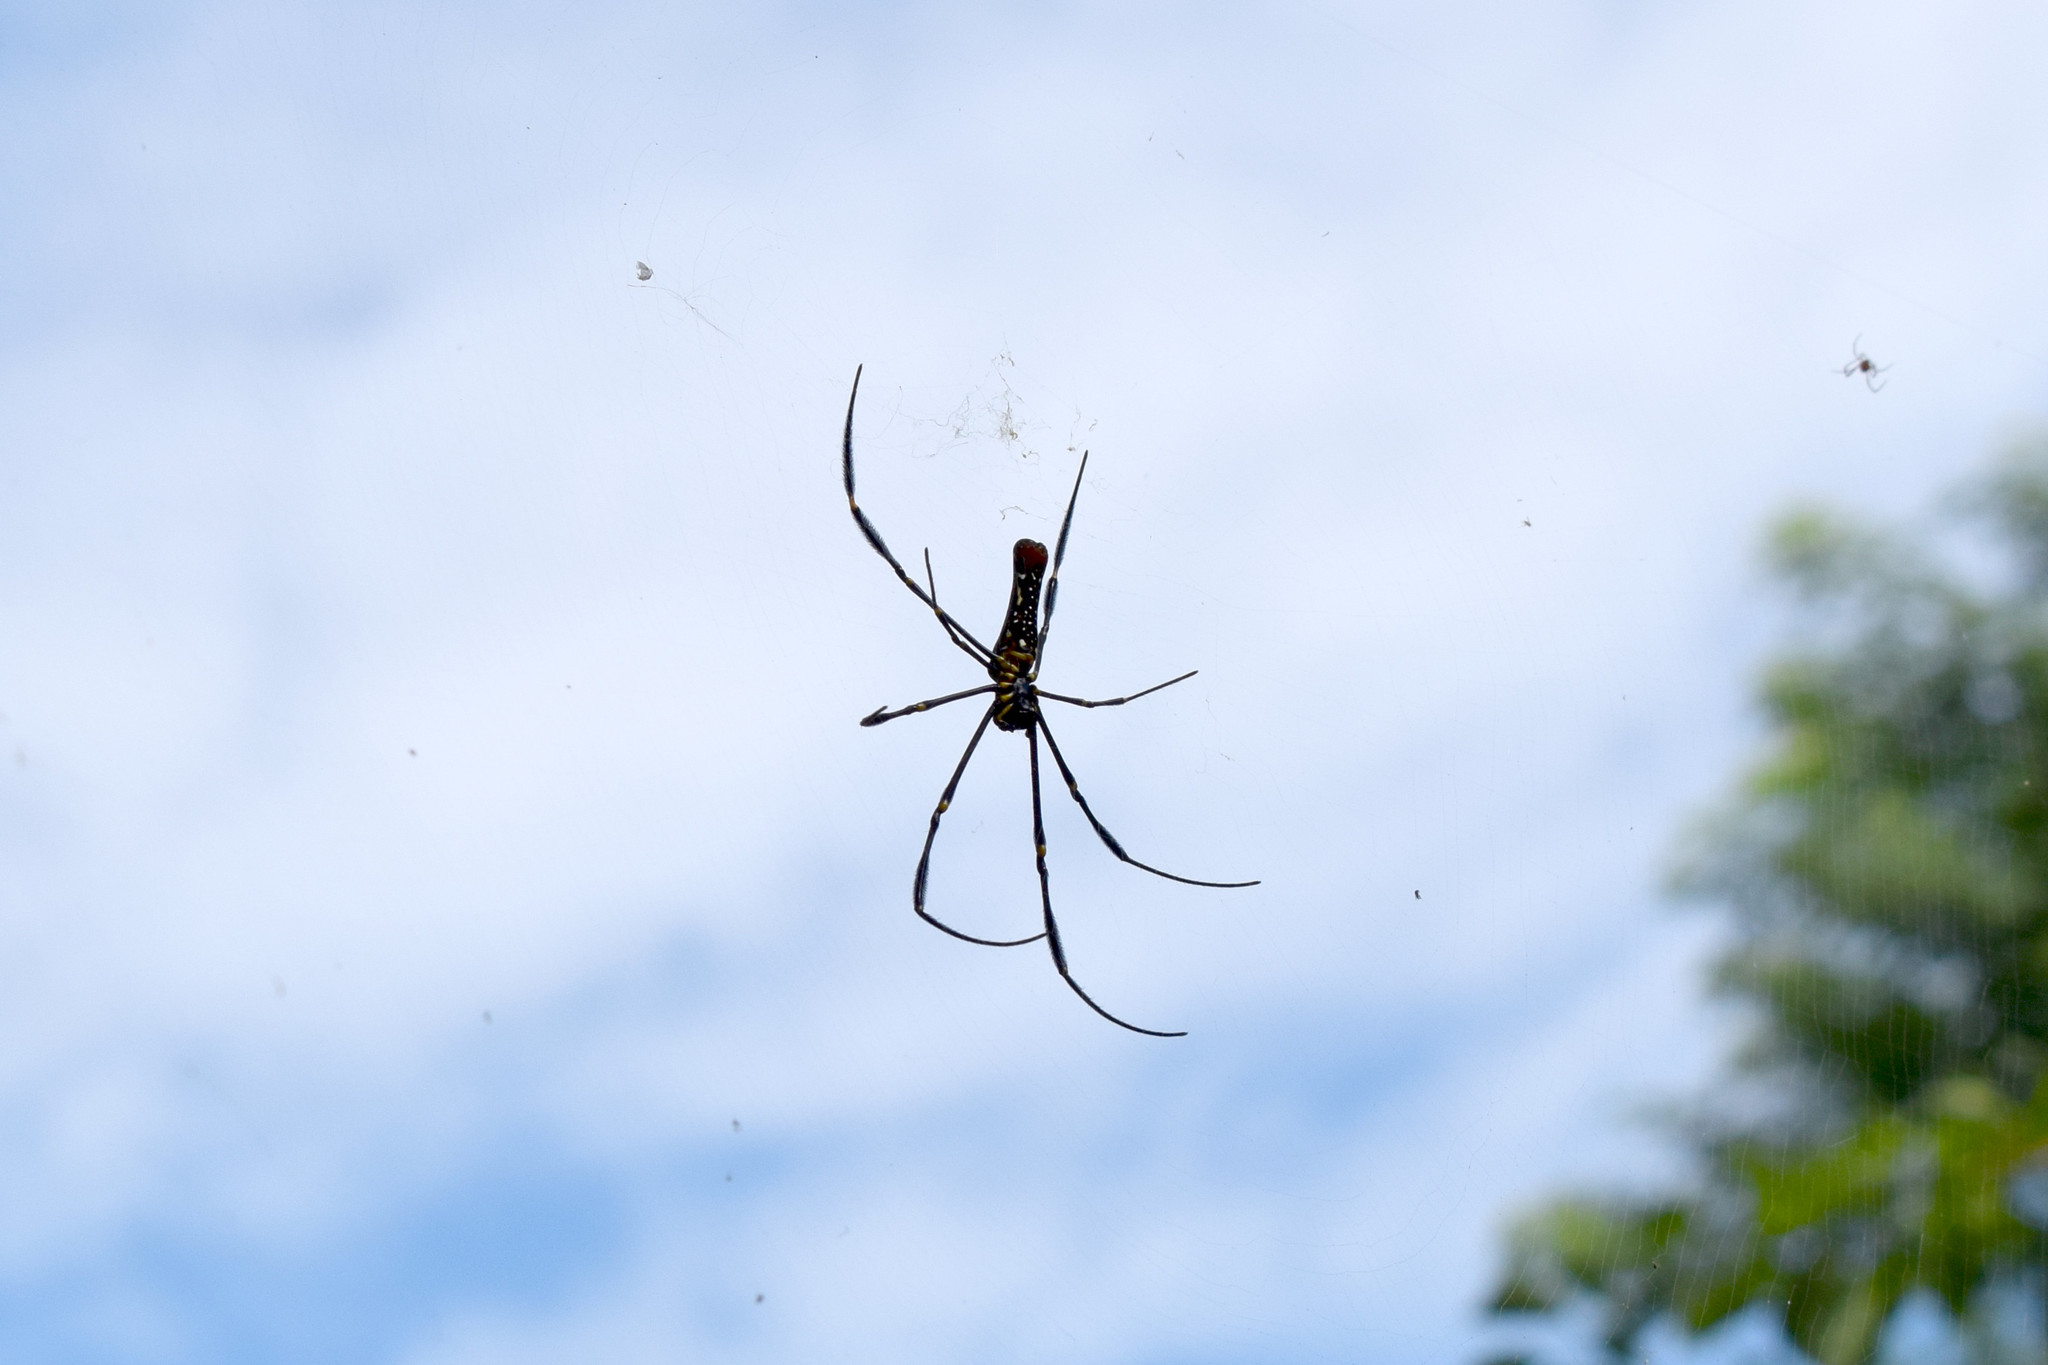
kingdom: Animalia
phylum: Arthropoda
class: Arachnida
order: Araneae
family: Araneidae
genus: Nephila
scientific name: Nephila pilipes
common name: Giant golden orb weaver
